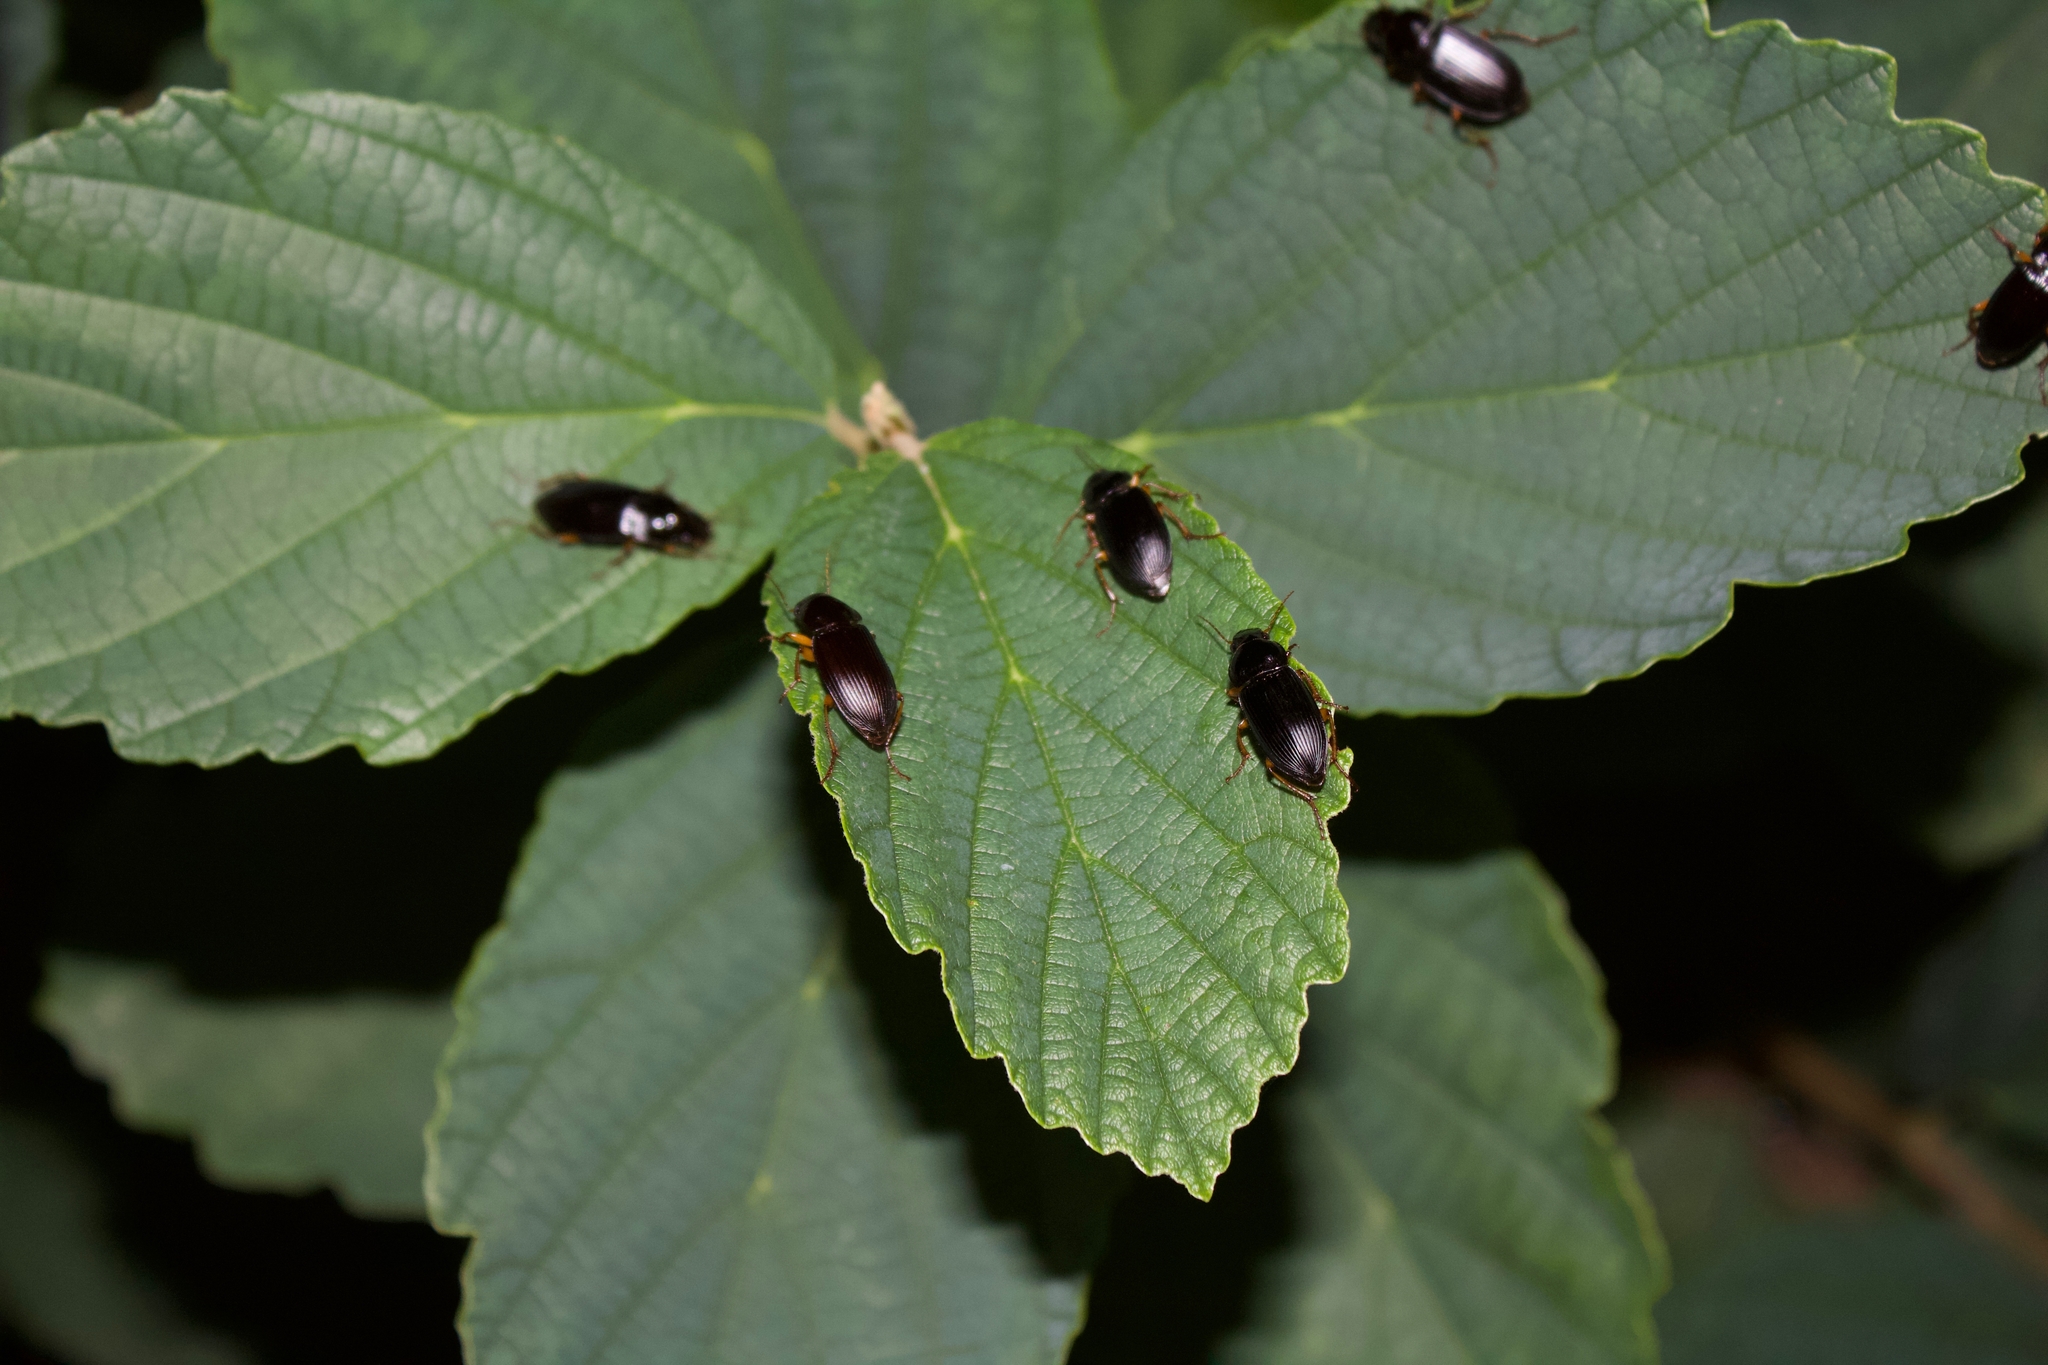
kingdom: Animalia
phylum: Arthropoda
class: Insecta
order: Coleoptera
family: Carabidae
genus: Harpalus
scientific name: Harpalus pensylvanicus
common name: Pennsylvania dingy ground beetle
